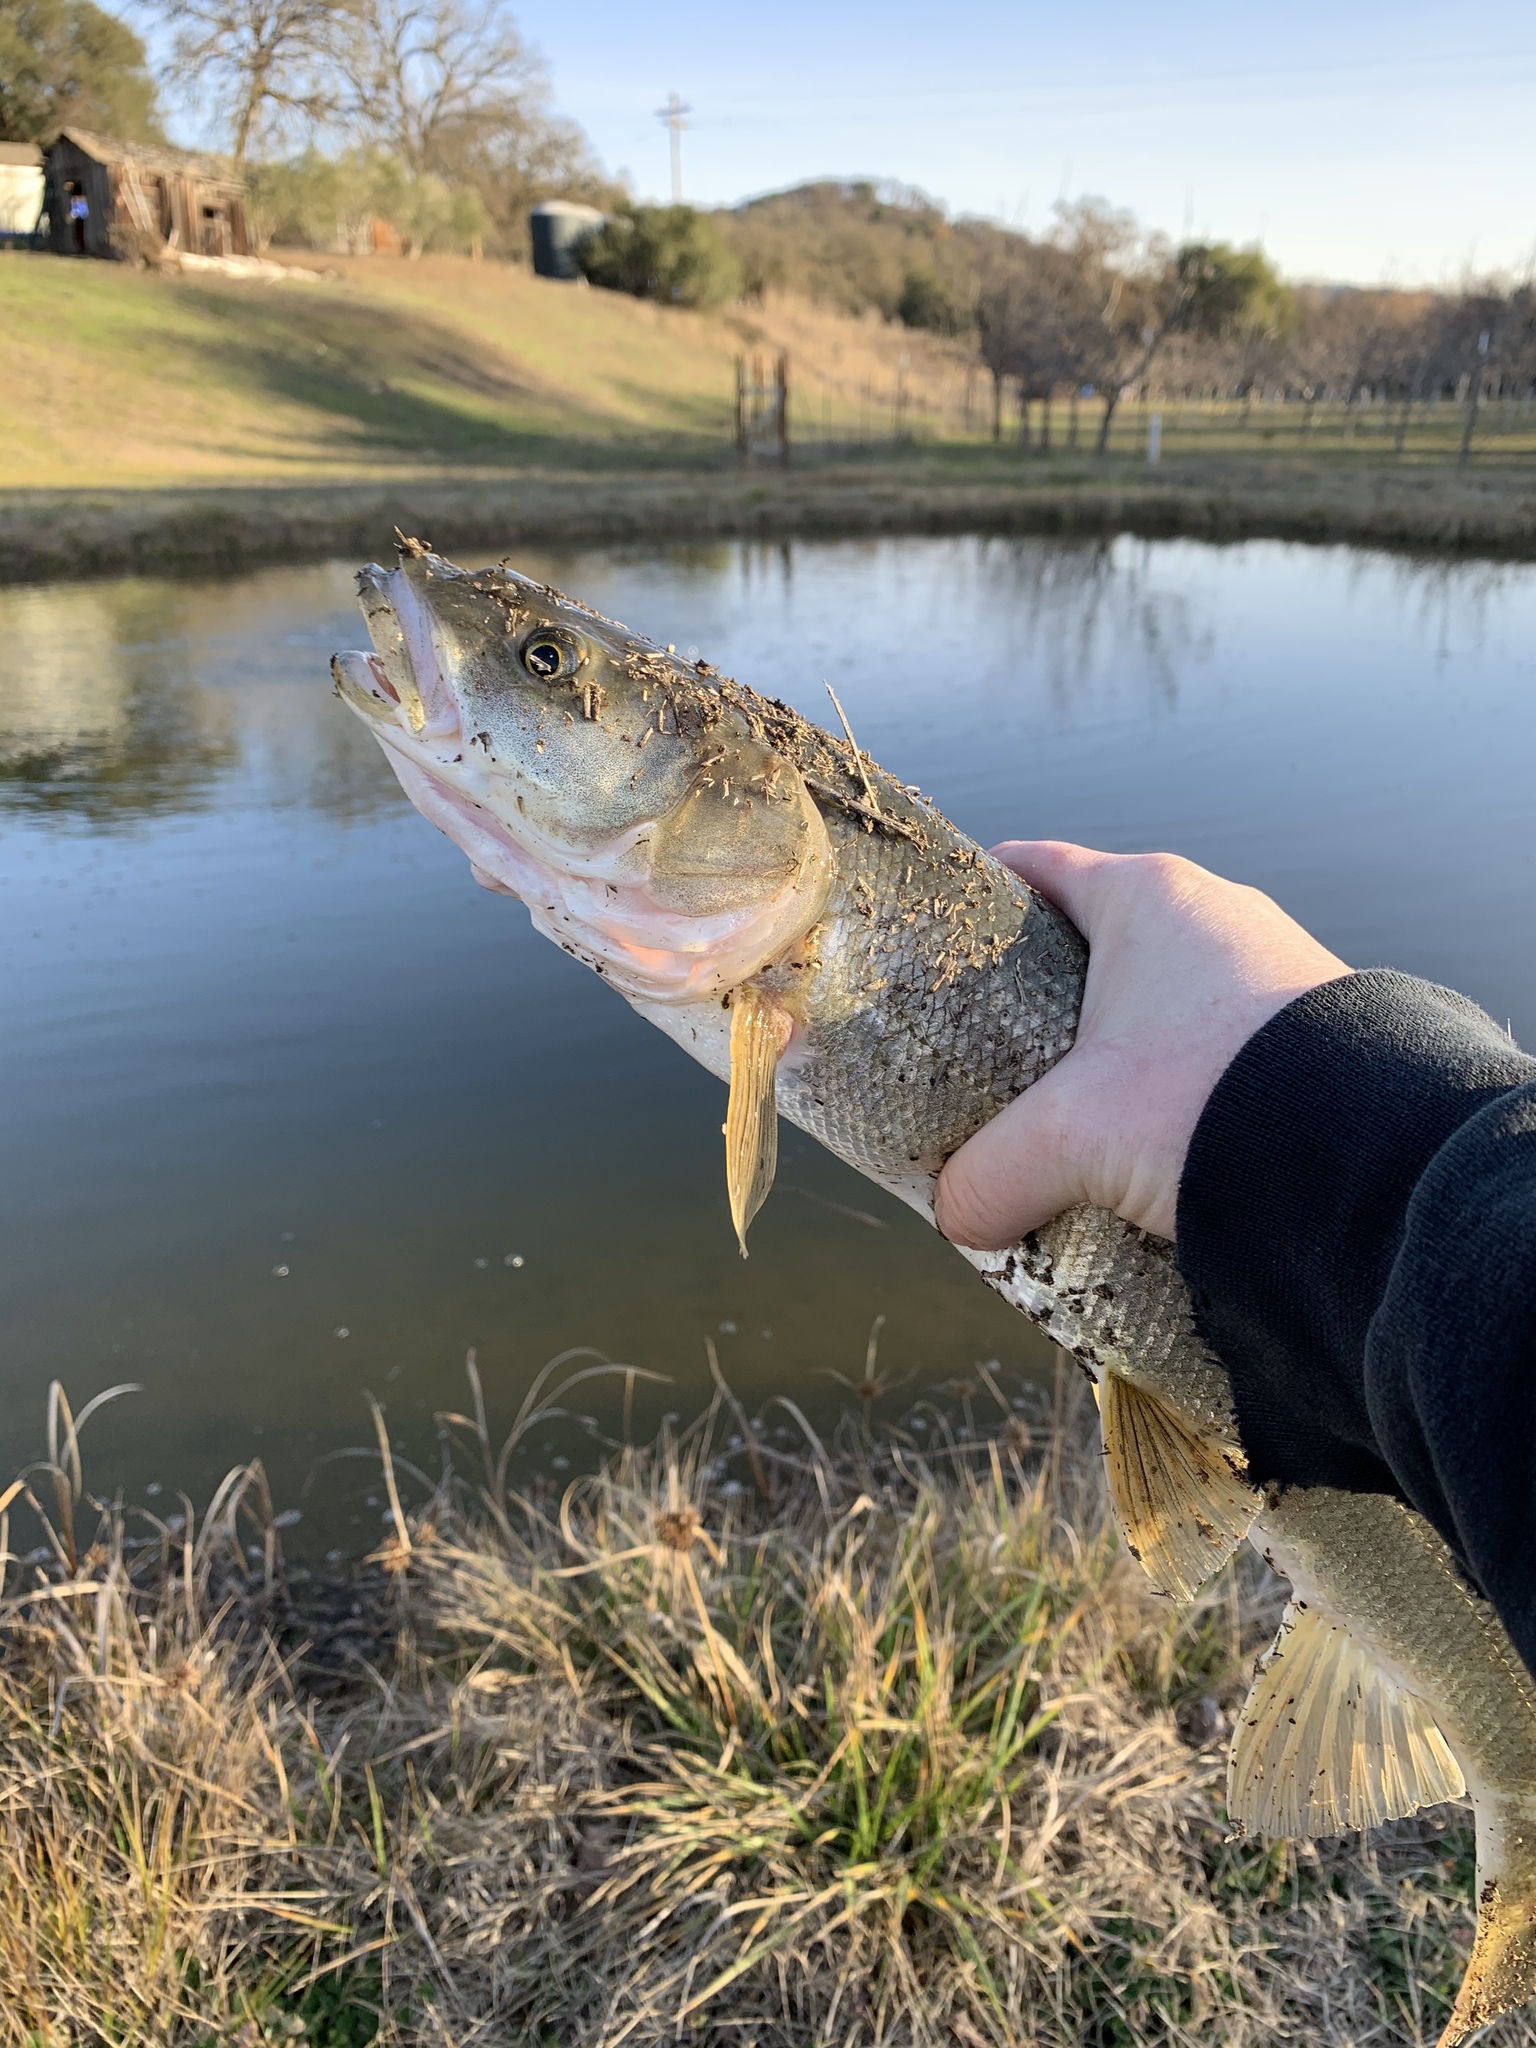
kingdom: Animalia
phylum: Chordata
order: Cypriniformes
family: Cyprinidae
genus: Ptychocheilus
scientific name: Ptychocheilus grandis
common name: Sacramento pikeminnow
